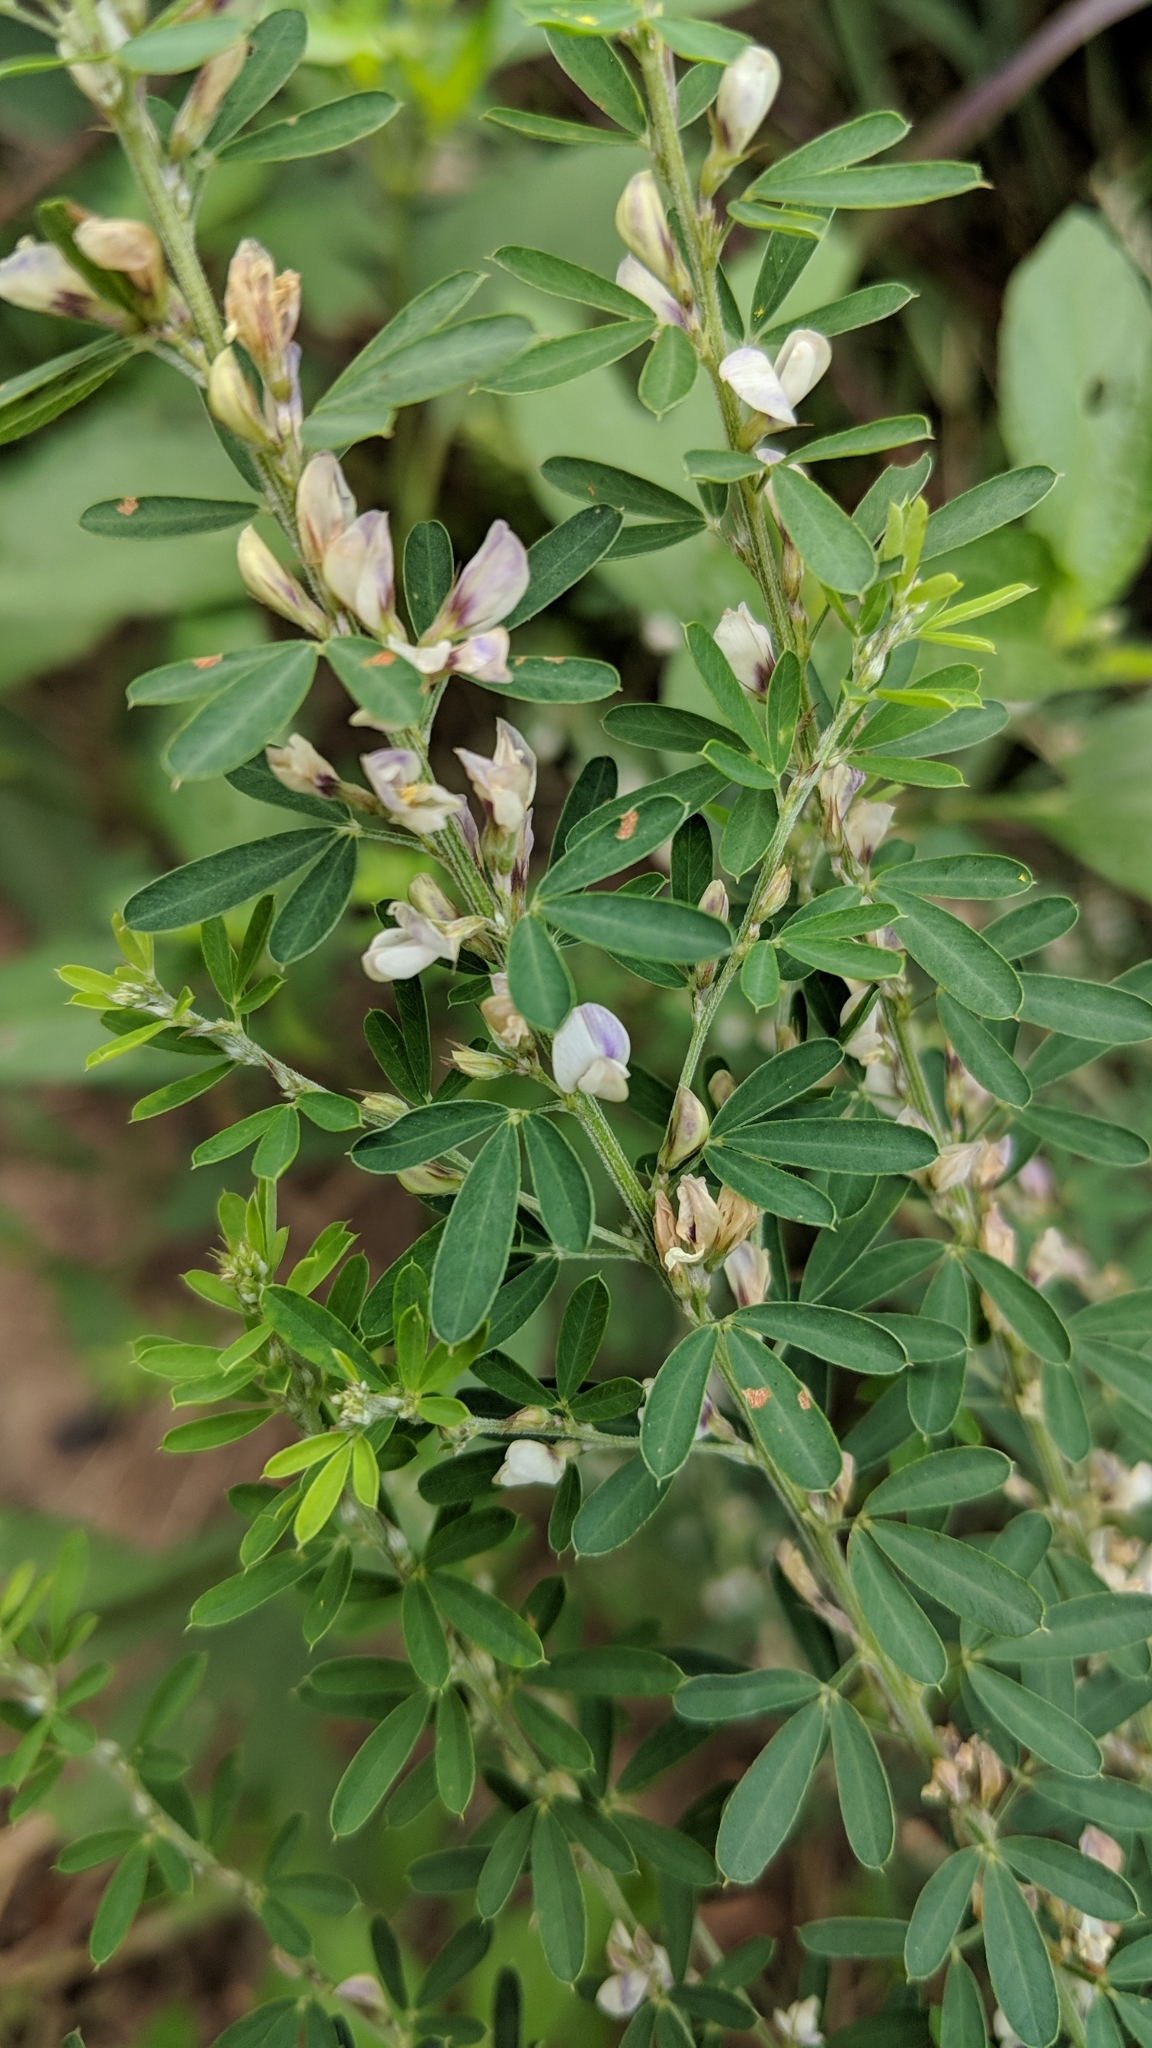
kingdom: Plantae
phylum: Tracheophyta
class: Magnoliopsida
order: Fabales
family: Fabaceae
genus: Lespedeza
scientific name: Lespedeza cuneata
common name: Chinese bush-clover
